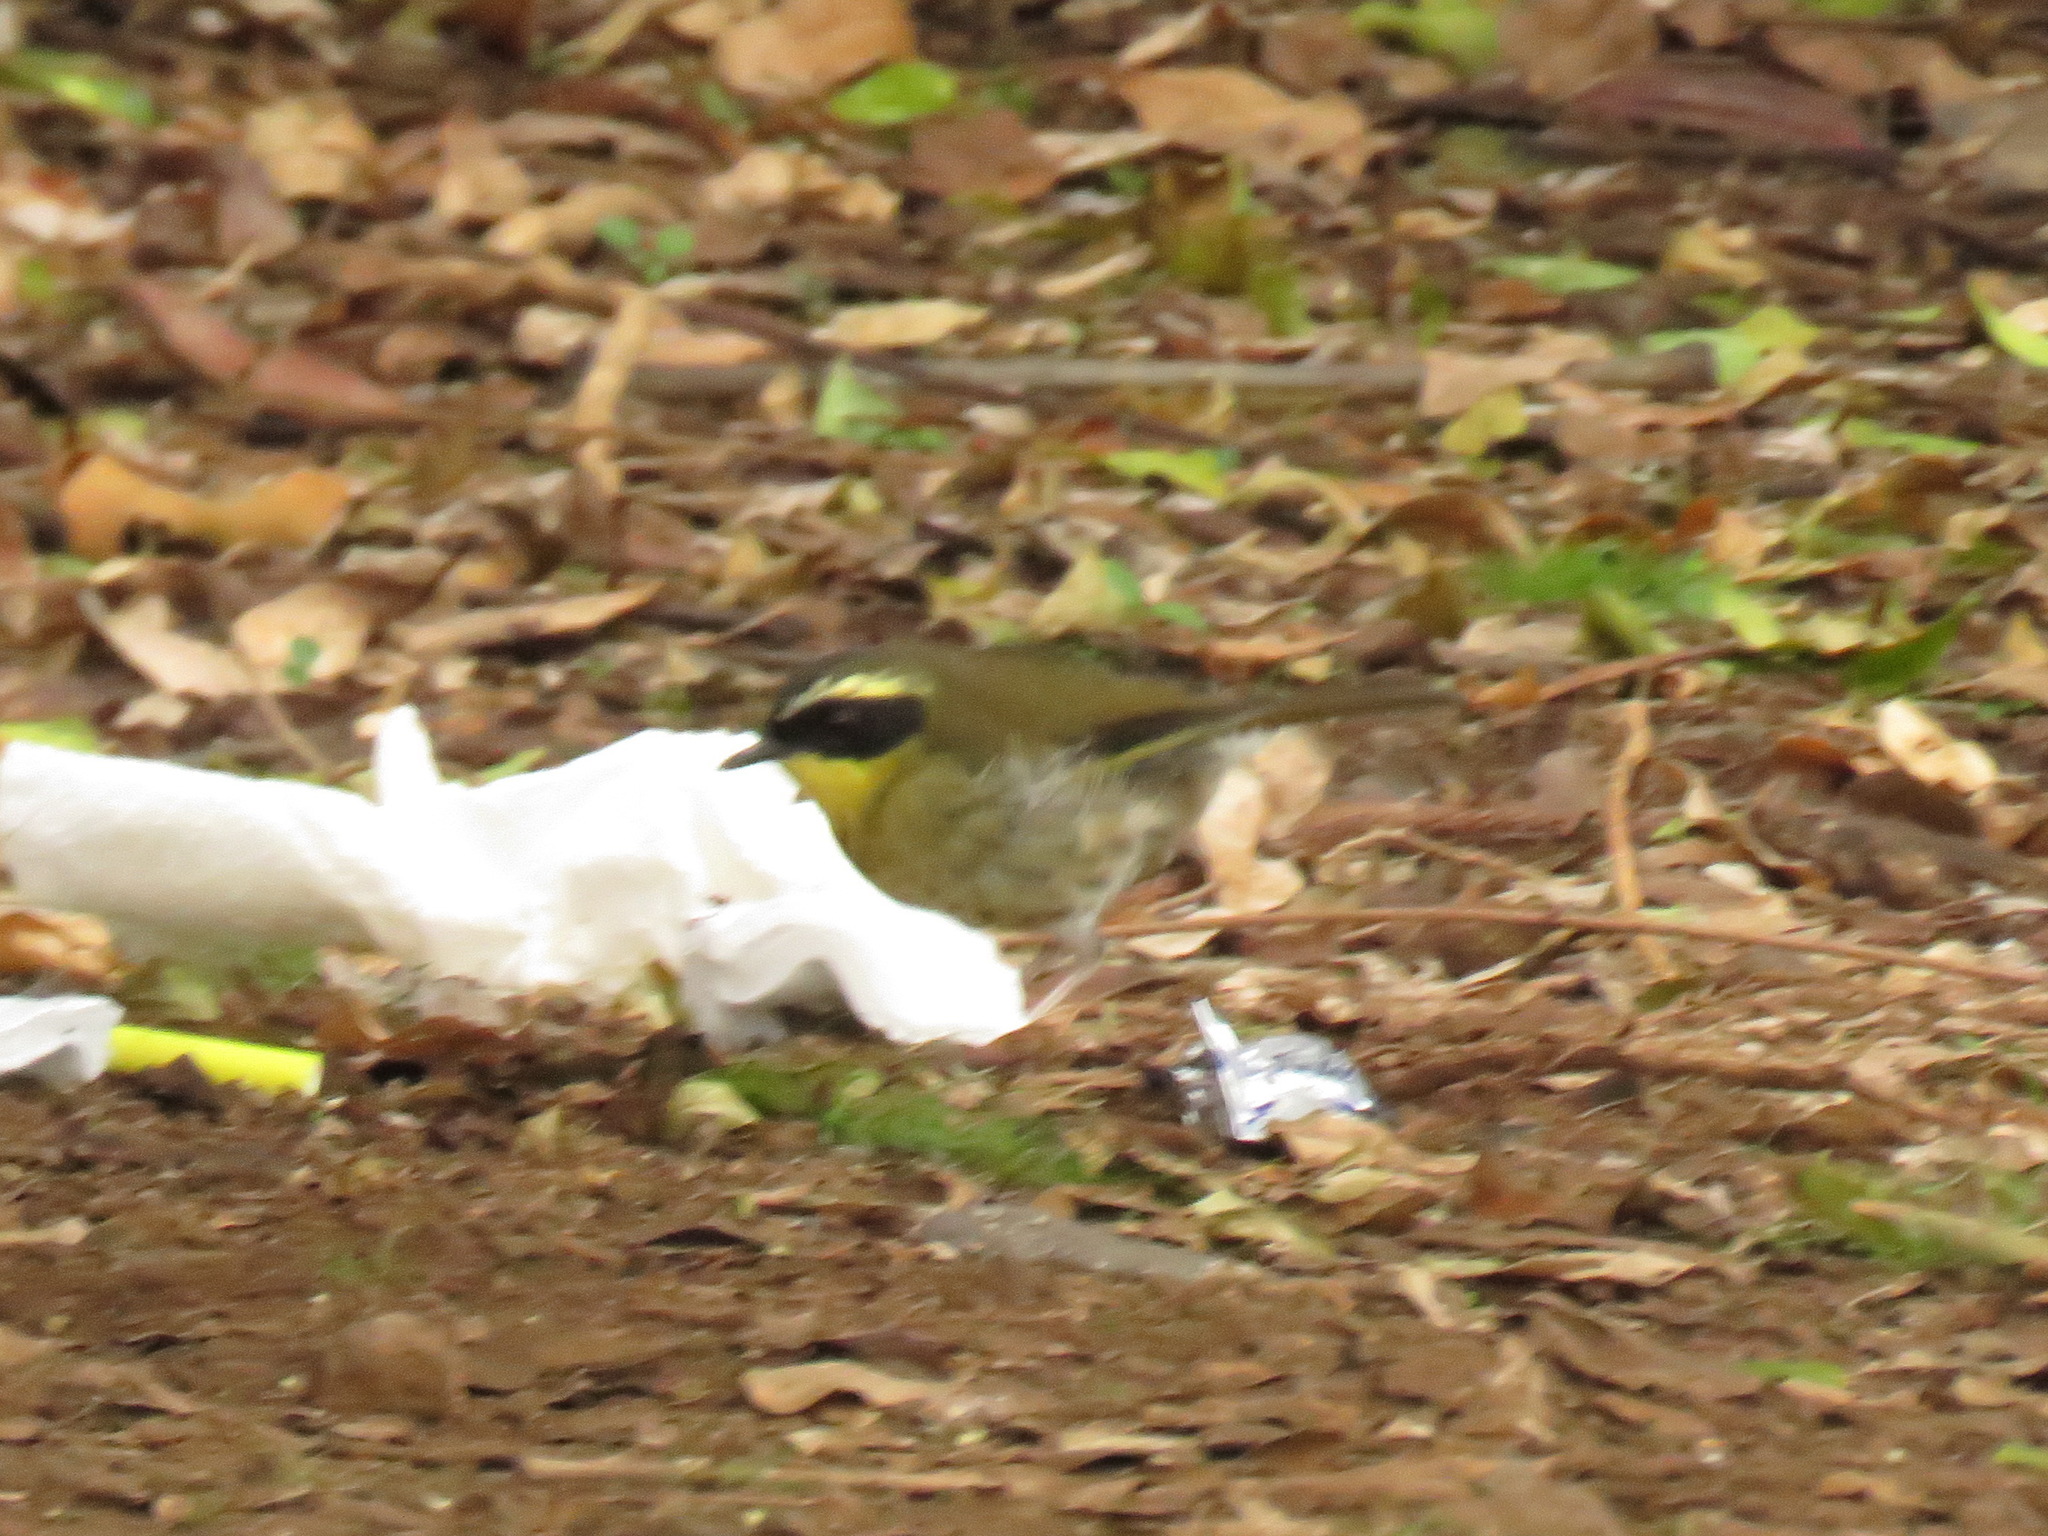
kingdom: Animalia
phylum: Chordata
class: Aves
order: Passeriformes
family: Acanthizidae
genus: Sericornis
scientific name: Sericornis citreogularis
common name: Yellow-throated scrubwren
